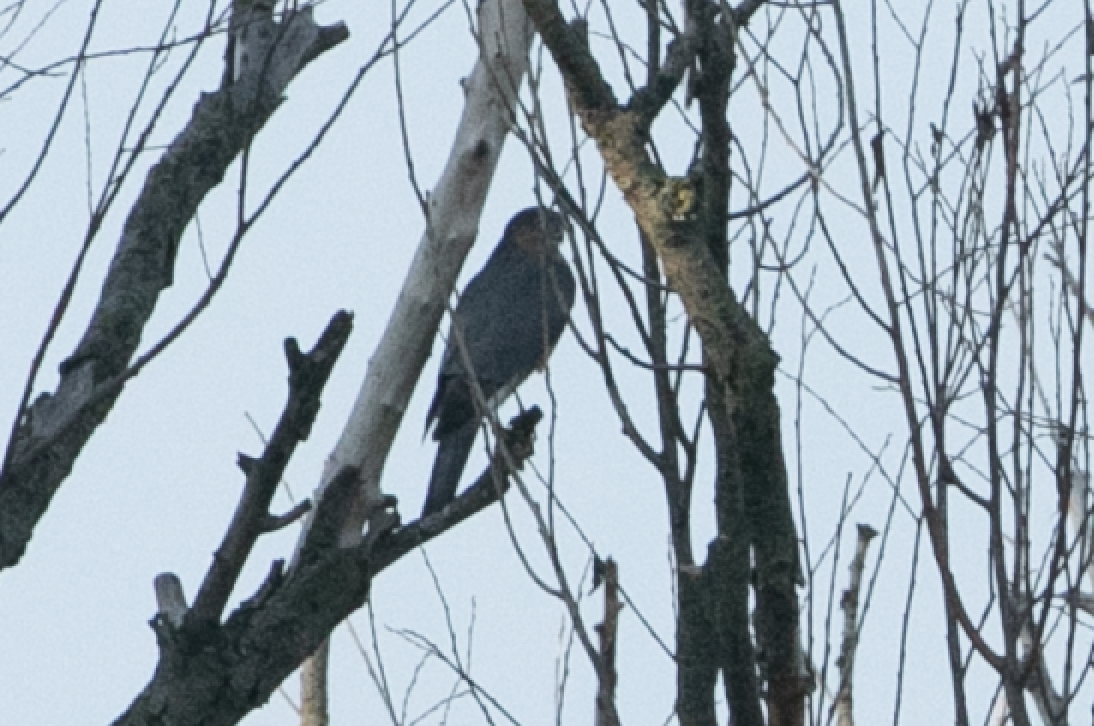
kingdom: Animalia
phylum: Chordata
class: Aves
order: Accipitriformes
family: Accipitridae
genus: Accipiter
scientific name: Accipiter nisus
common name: Eurasian sparrowhawk
